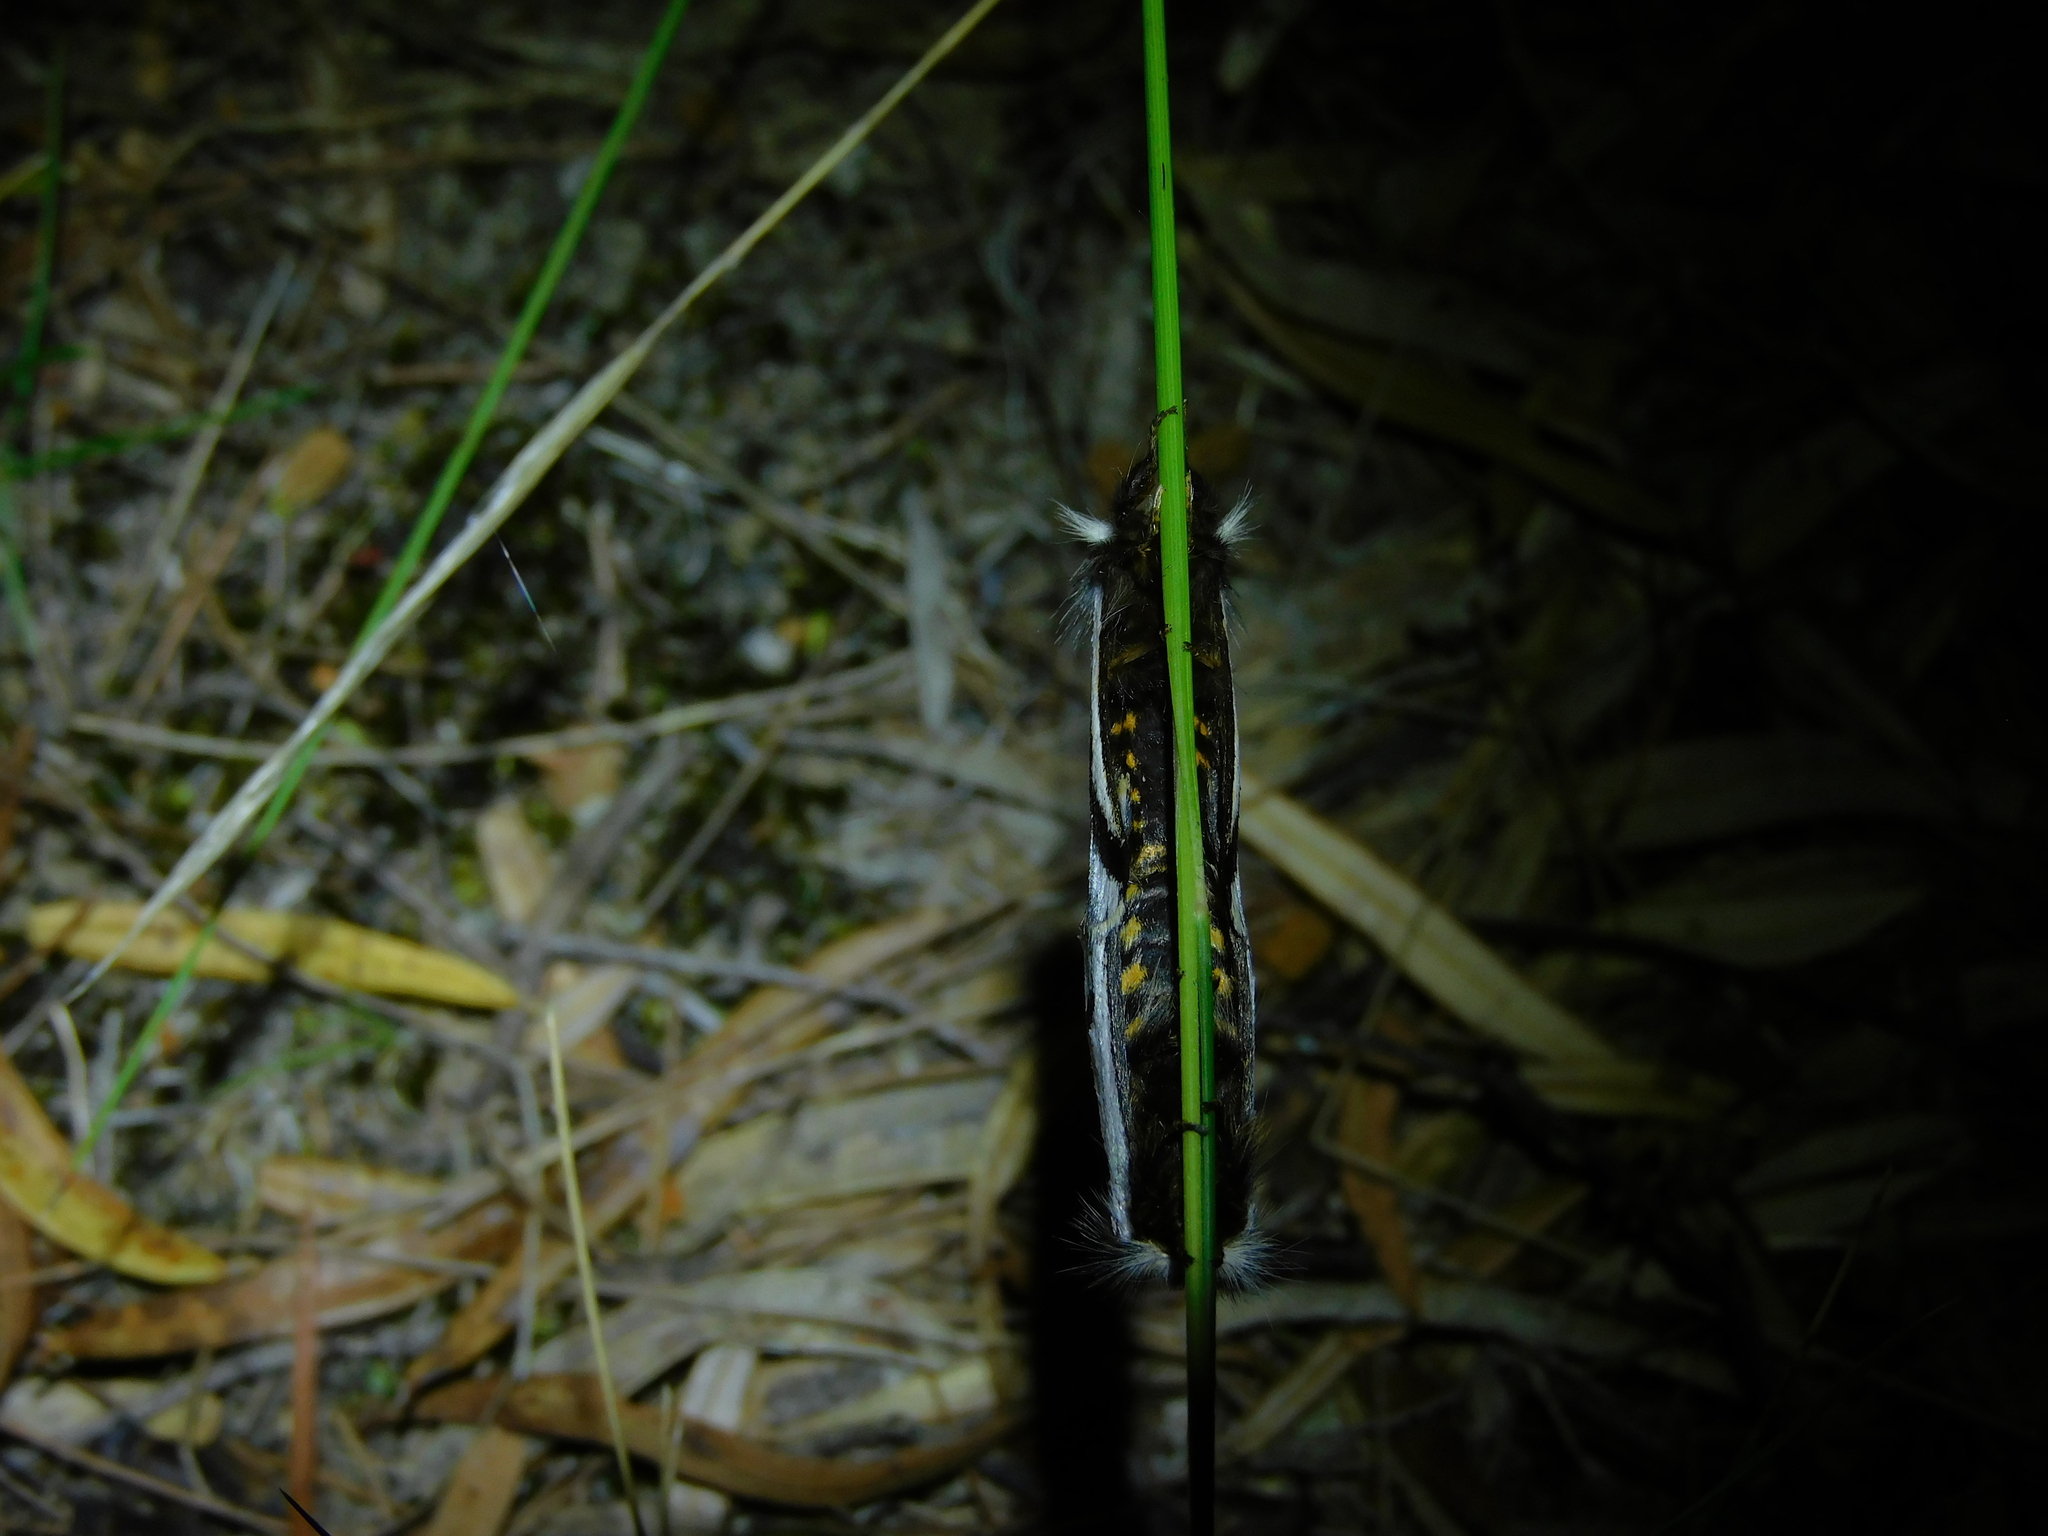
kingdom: Animalia
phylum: Arthropoda
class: Insecta
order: Lepidoptera
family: Notodontidae
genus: Epicoma
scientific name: Epicoma melanospila
